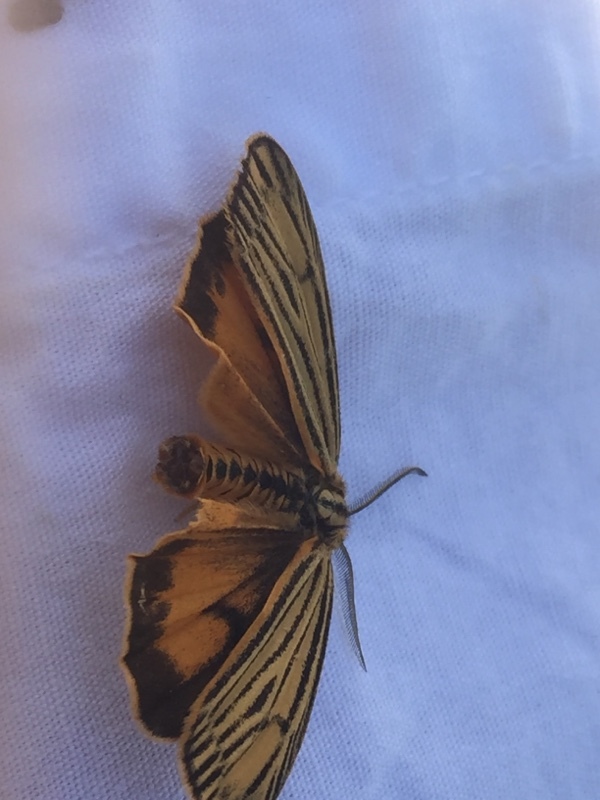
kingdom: Animalia
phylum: Arthropoda
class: Insecta
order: Lepidoptera
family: Erebidae
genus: Coscinia
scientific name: Coscinia Spiris striata
